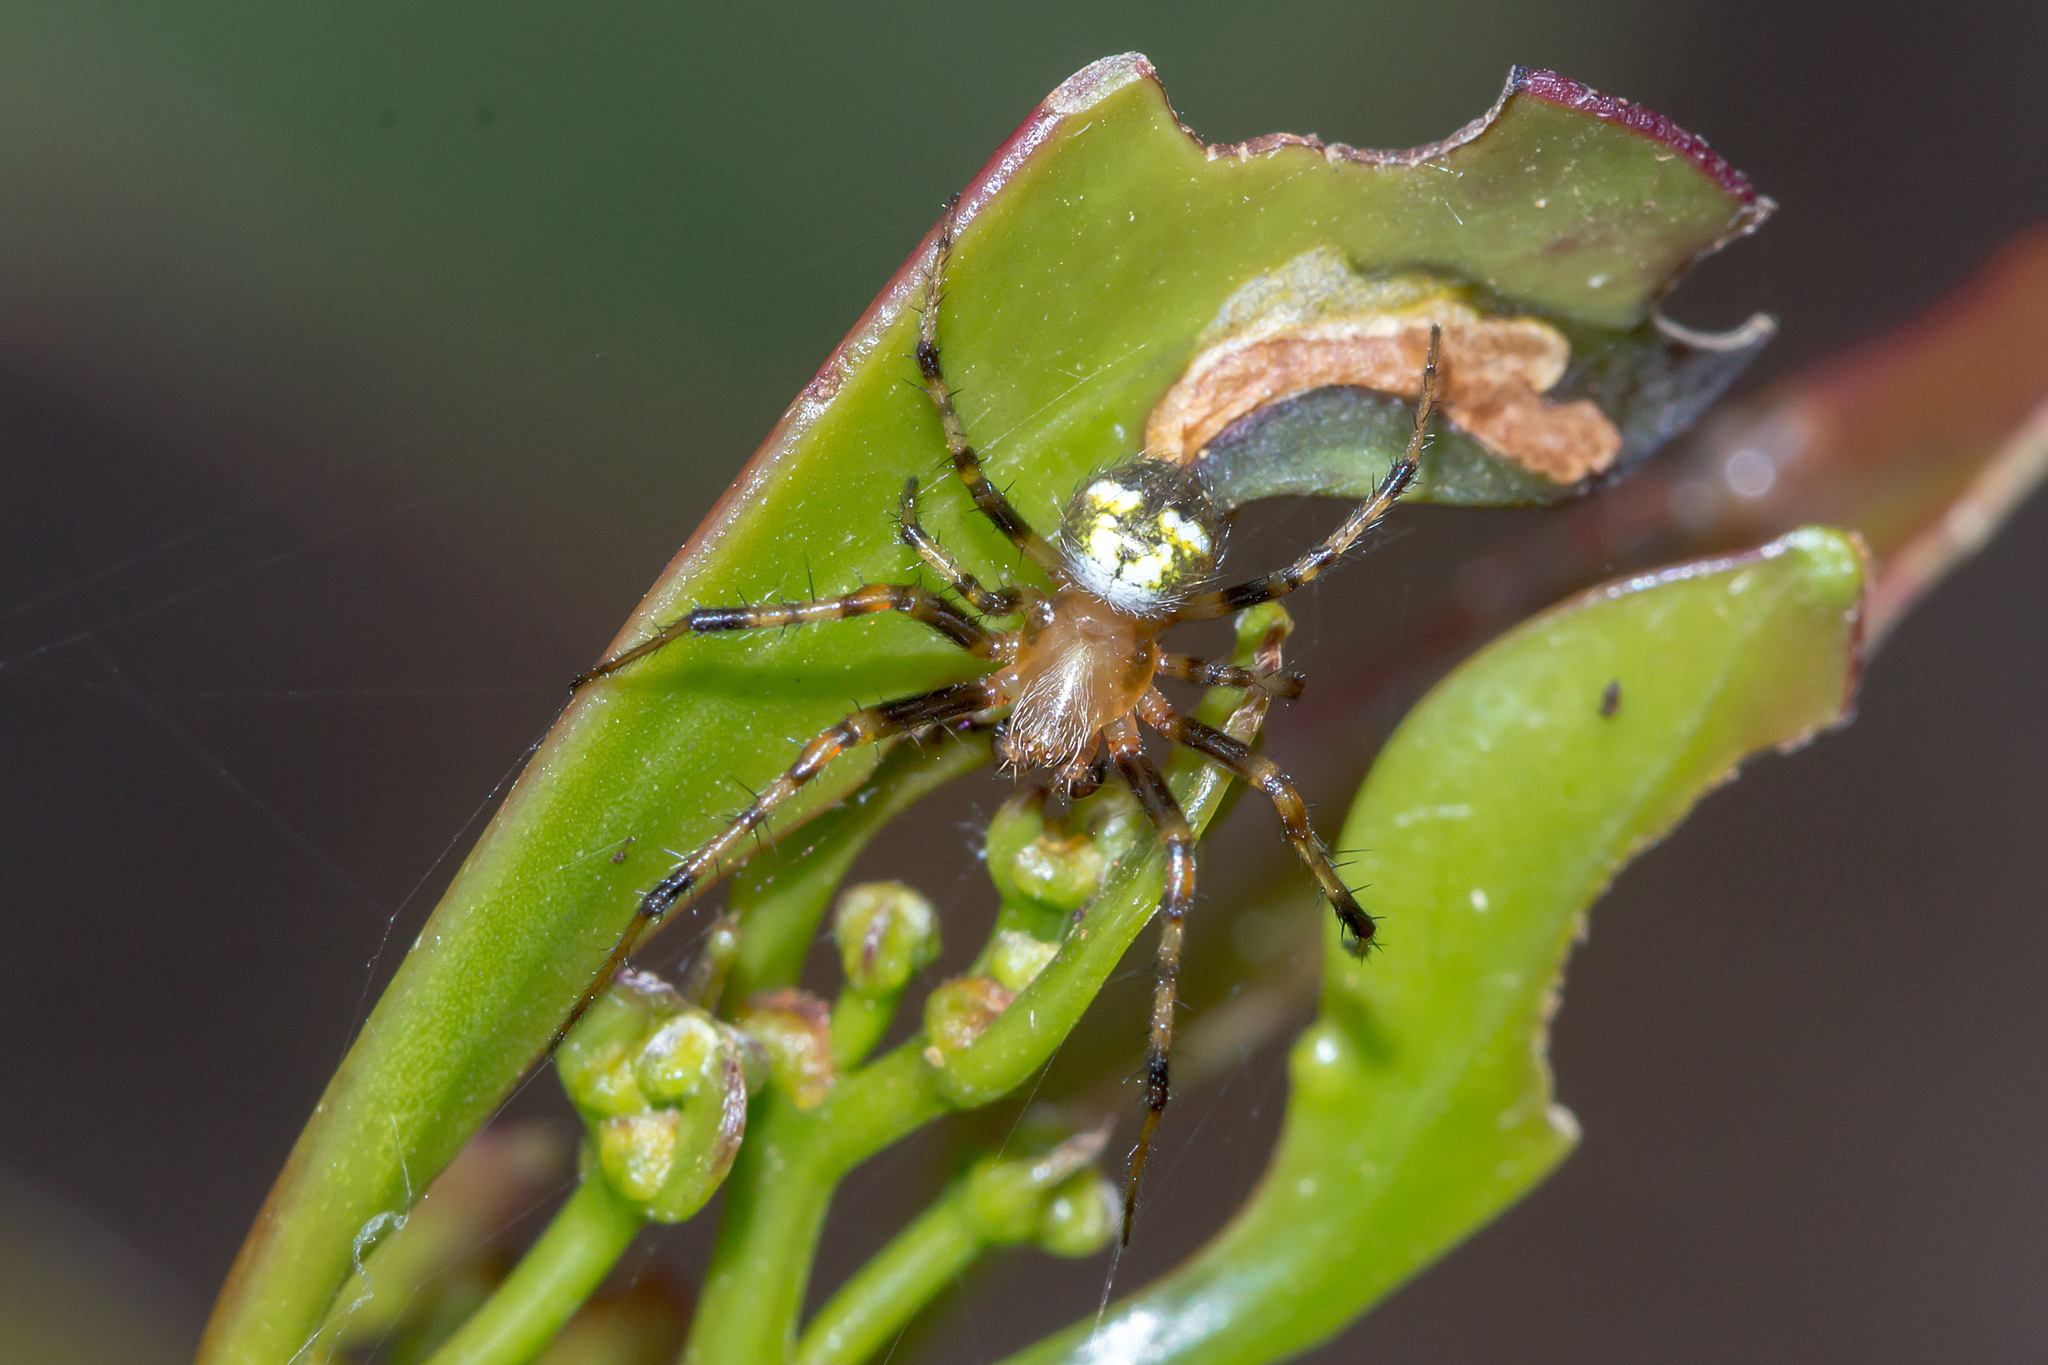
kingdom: Animalia
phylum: Arthropoda
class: Arachnida
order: Araneae
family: Araneidae
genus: Araneus
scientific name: Araneus albotriangulus
